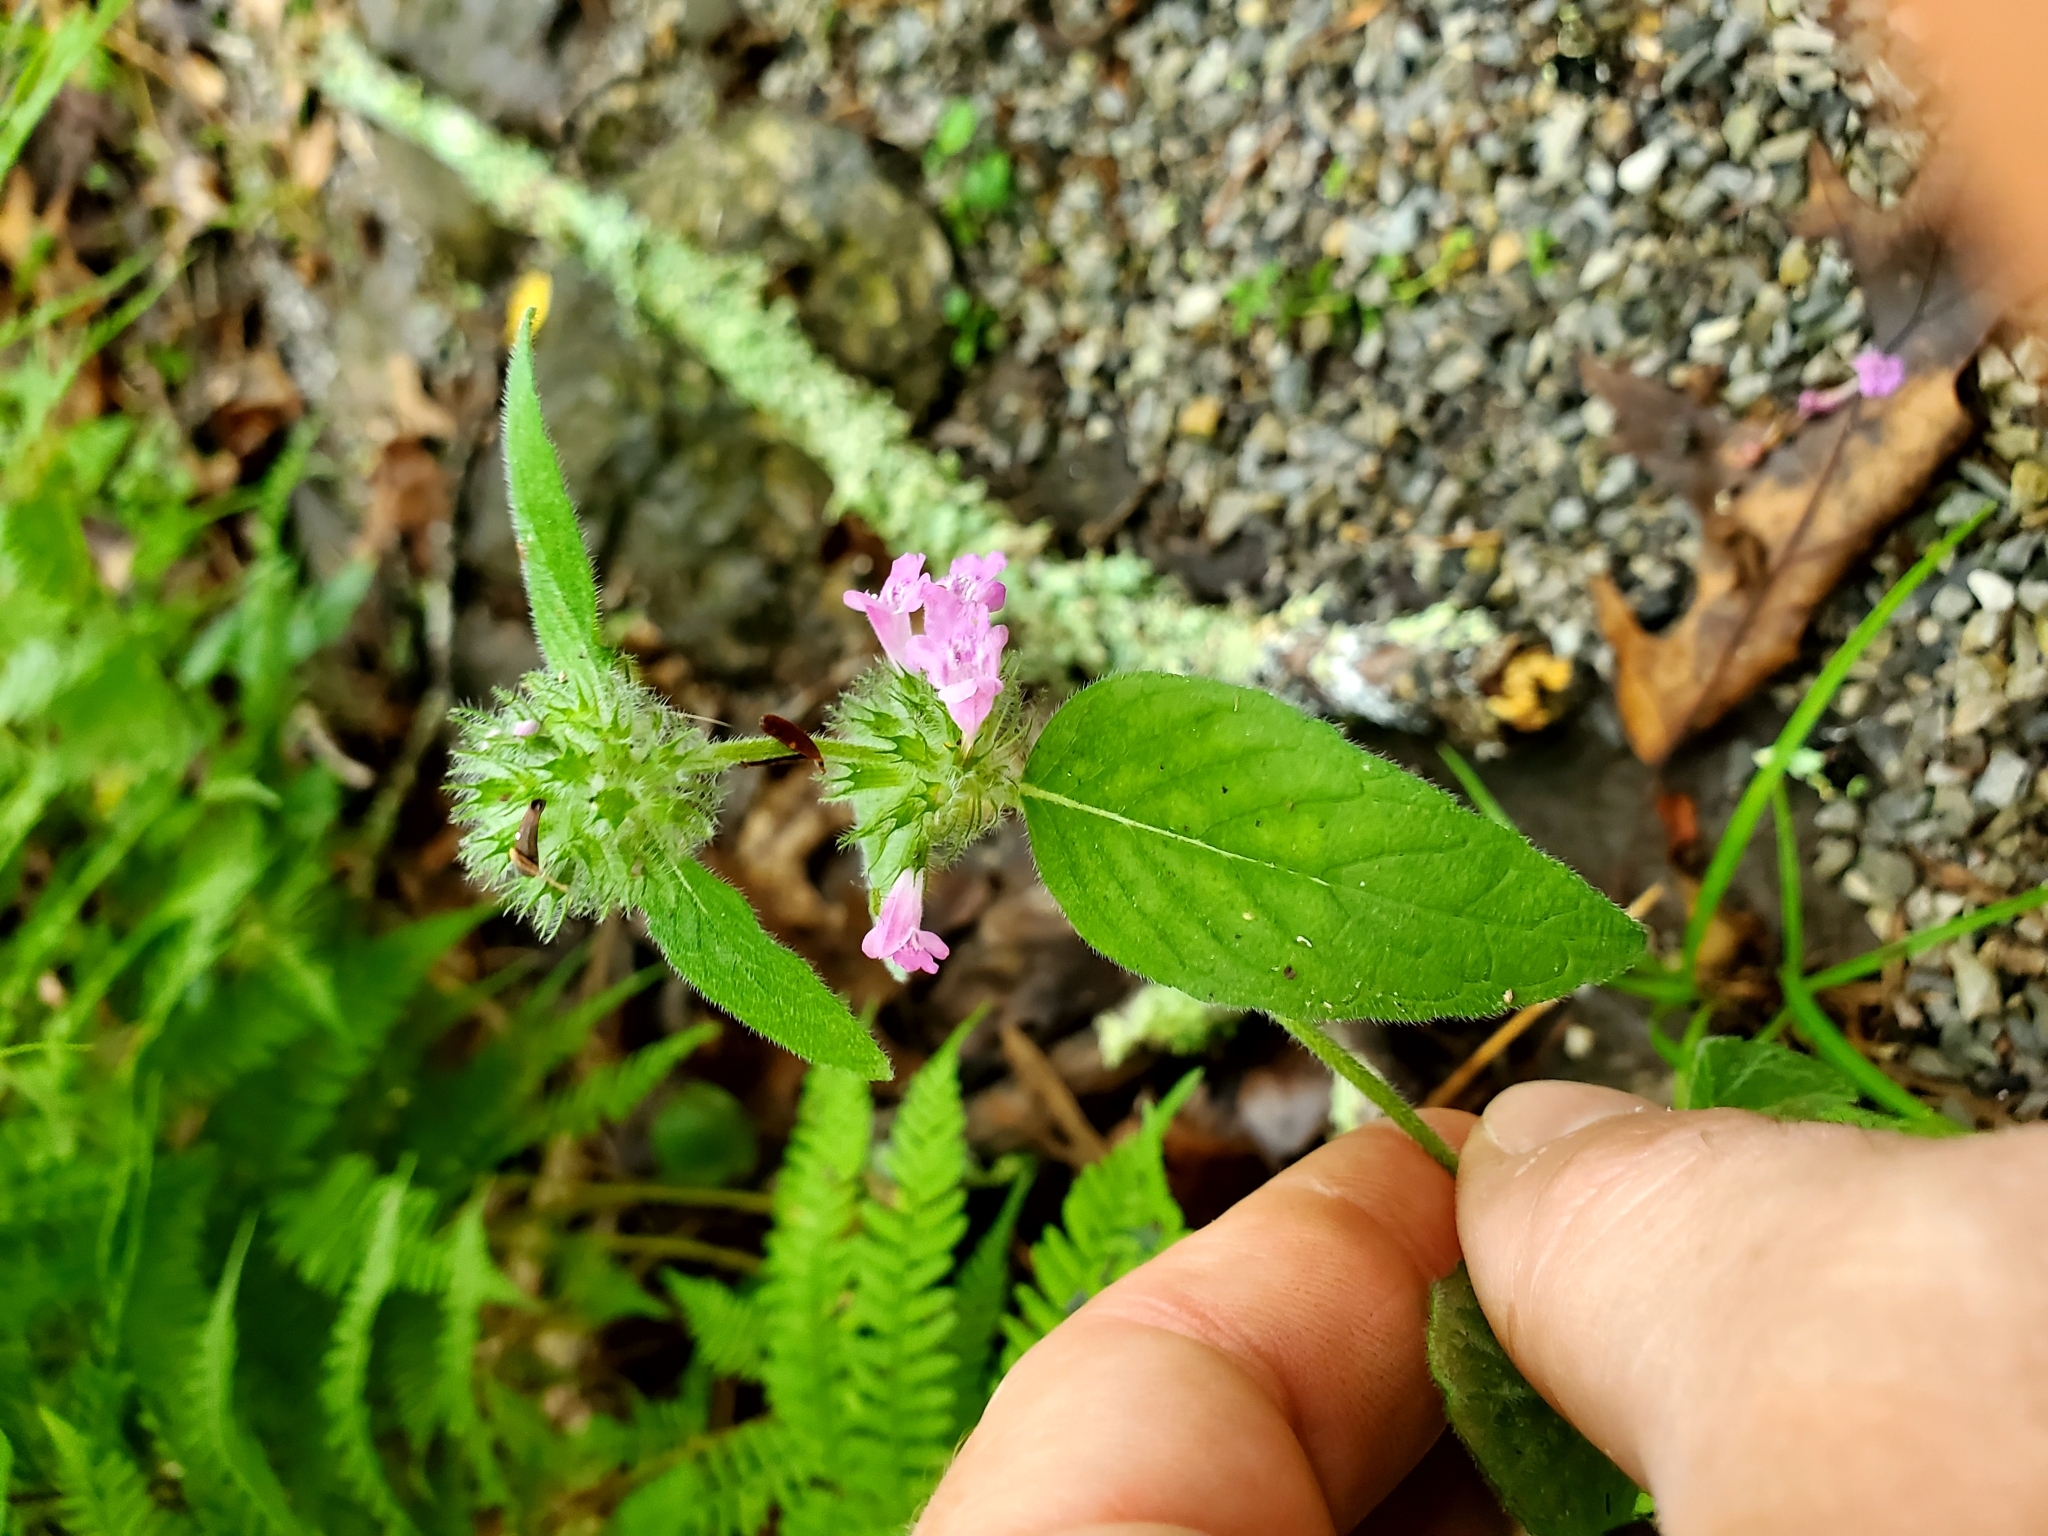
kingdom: Plantae
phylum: Tracheophyta
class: Magnoliopsida
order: Lamiales
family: Lamiaceae
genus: Clinopodium
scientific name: Clinopodium vulgare
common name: Wild basil
